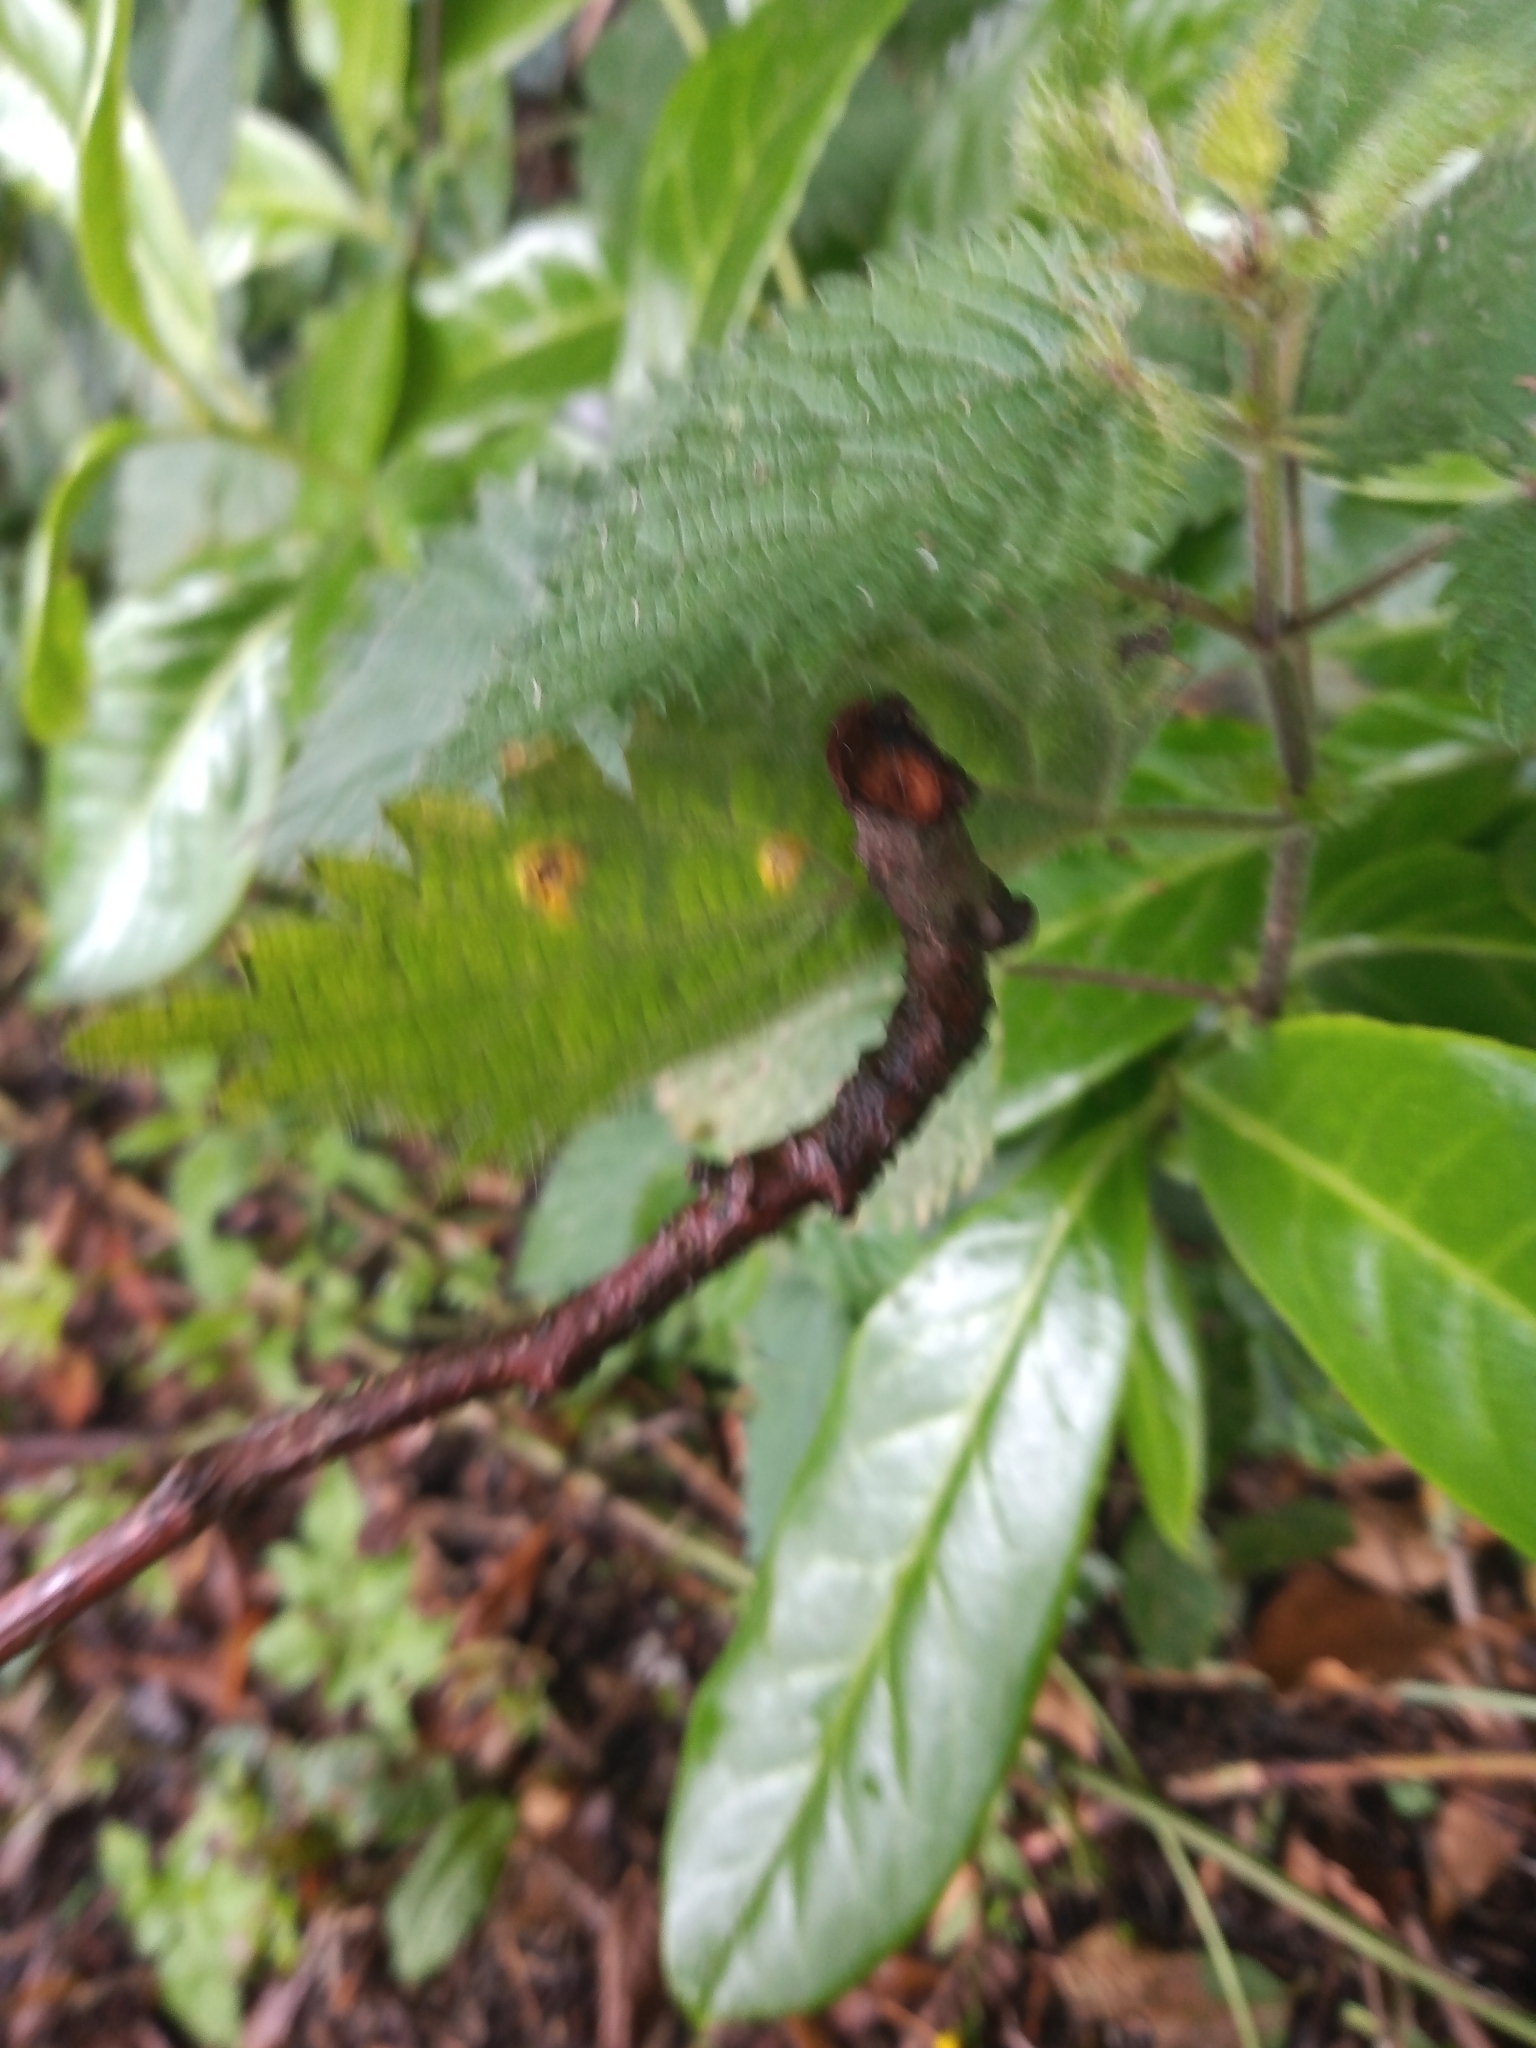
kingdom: Fungi
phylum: Basidiomycota
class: Pucciniomycetes
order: Pucciniales
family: Pucciniaceae
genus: Puccinia
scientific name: Puccinia urticata
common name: Nettle clustercup rust fungus
